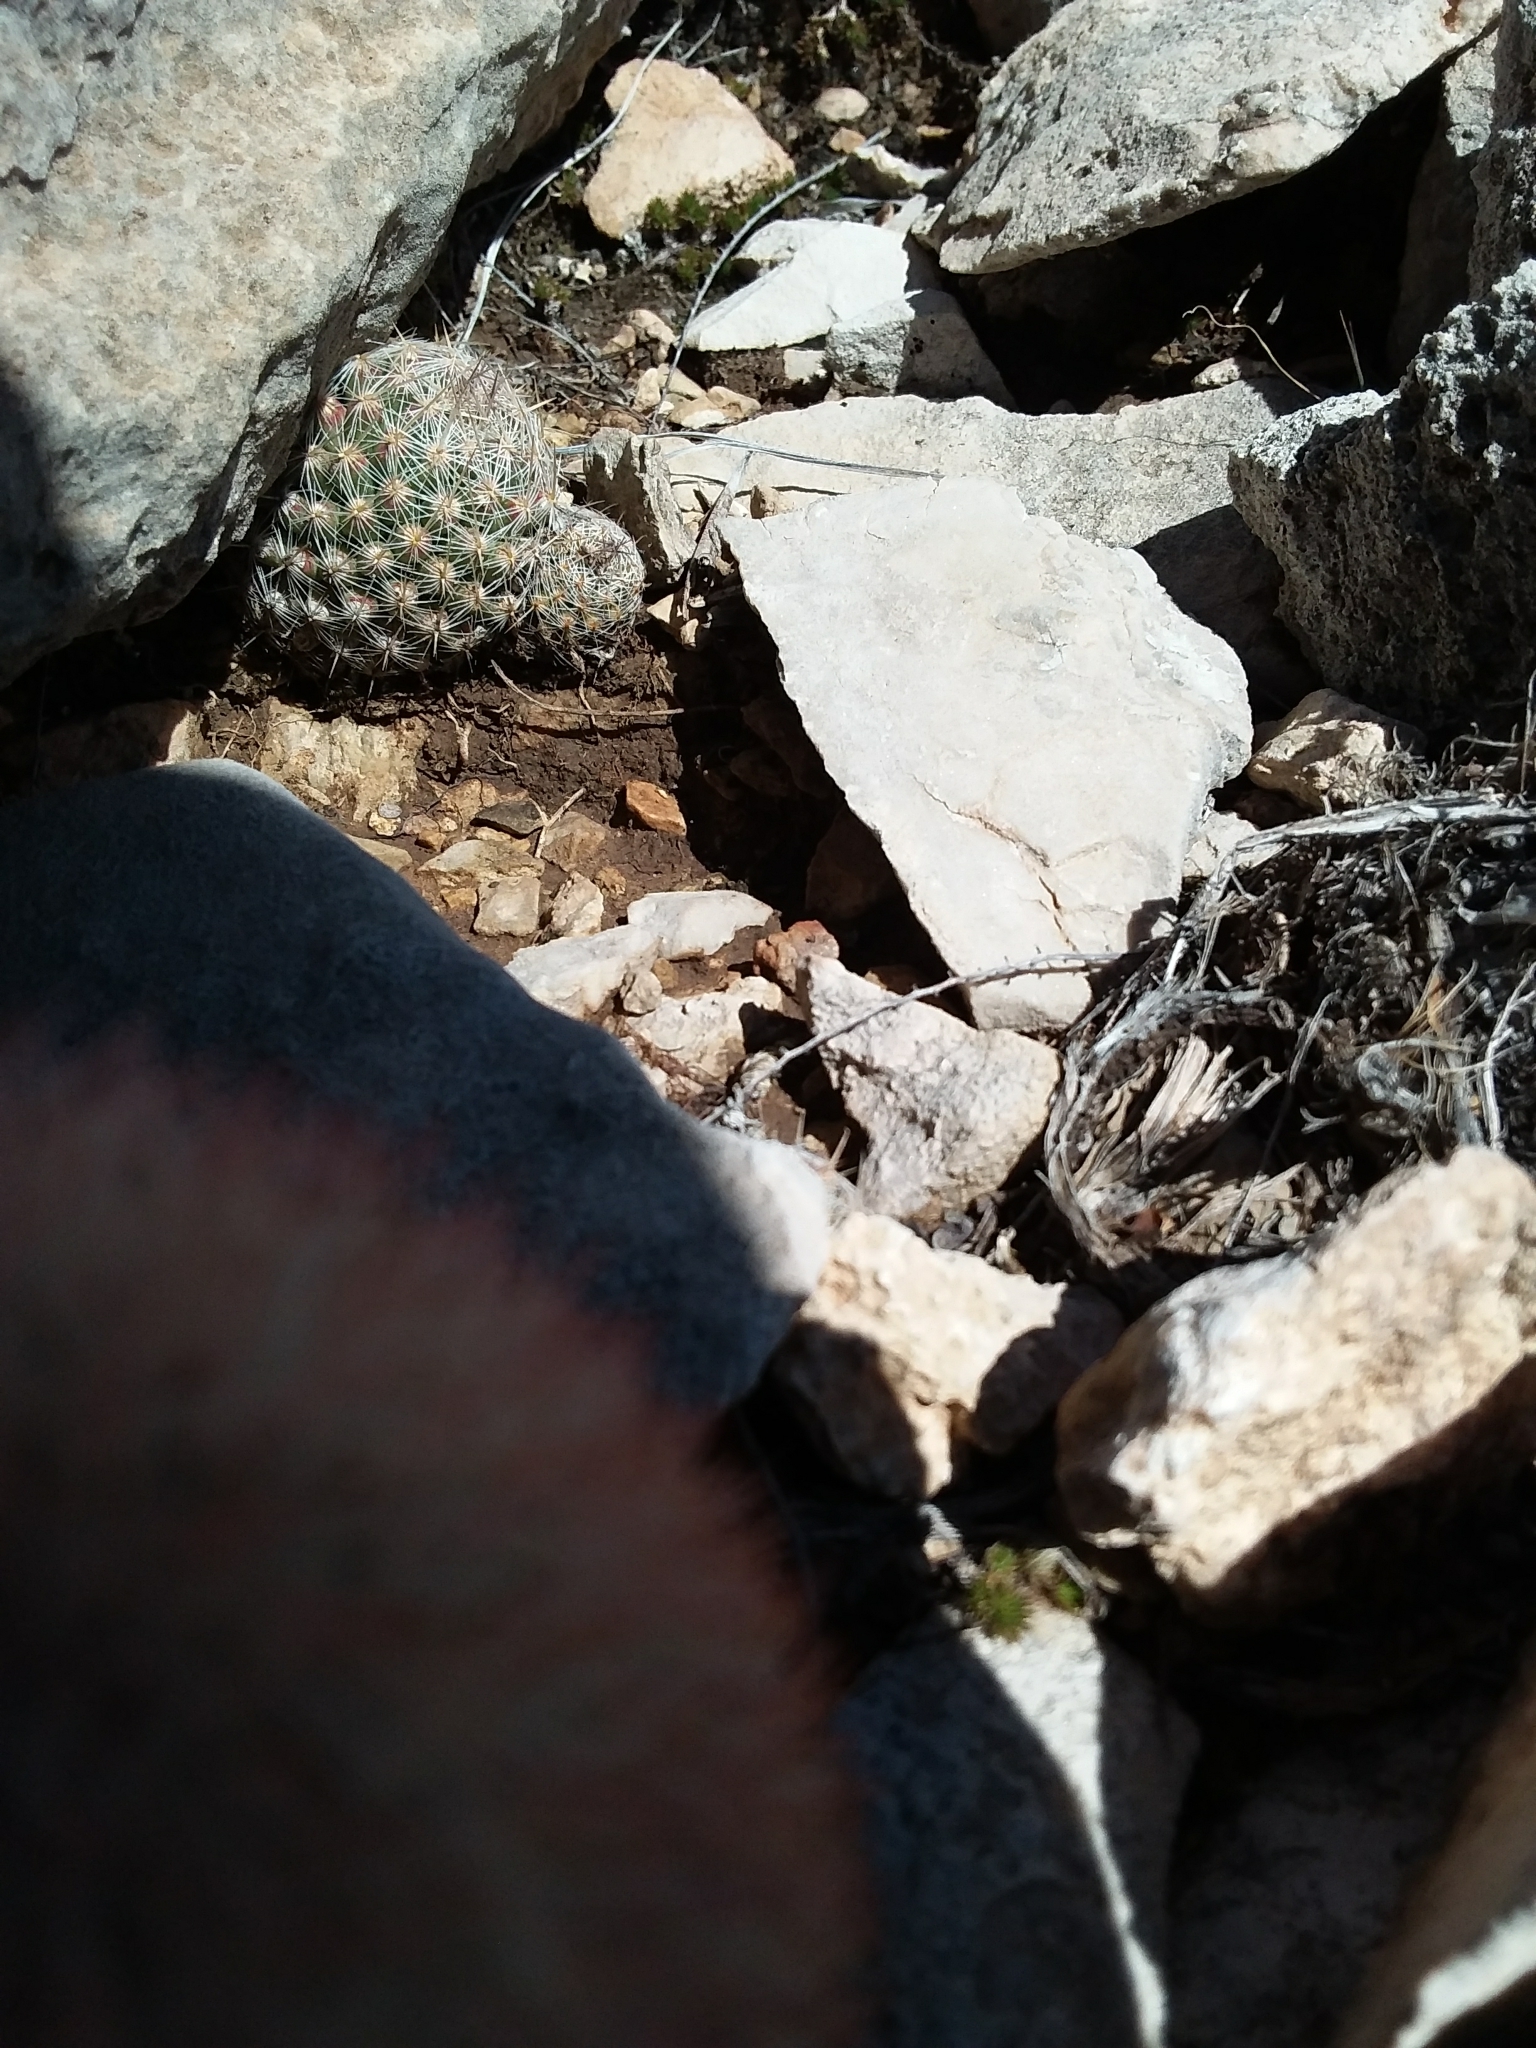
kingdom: Plantae
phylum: Tracheophyta
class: Magnoliopsida
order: Caryophyllales
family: Cactaceae
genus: Pelecyphora
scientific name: Pelecyphora tuberculosa
